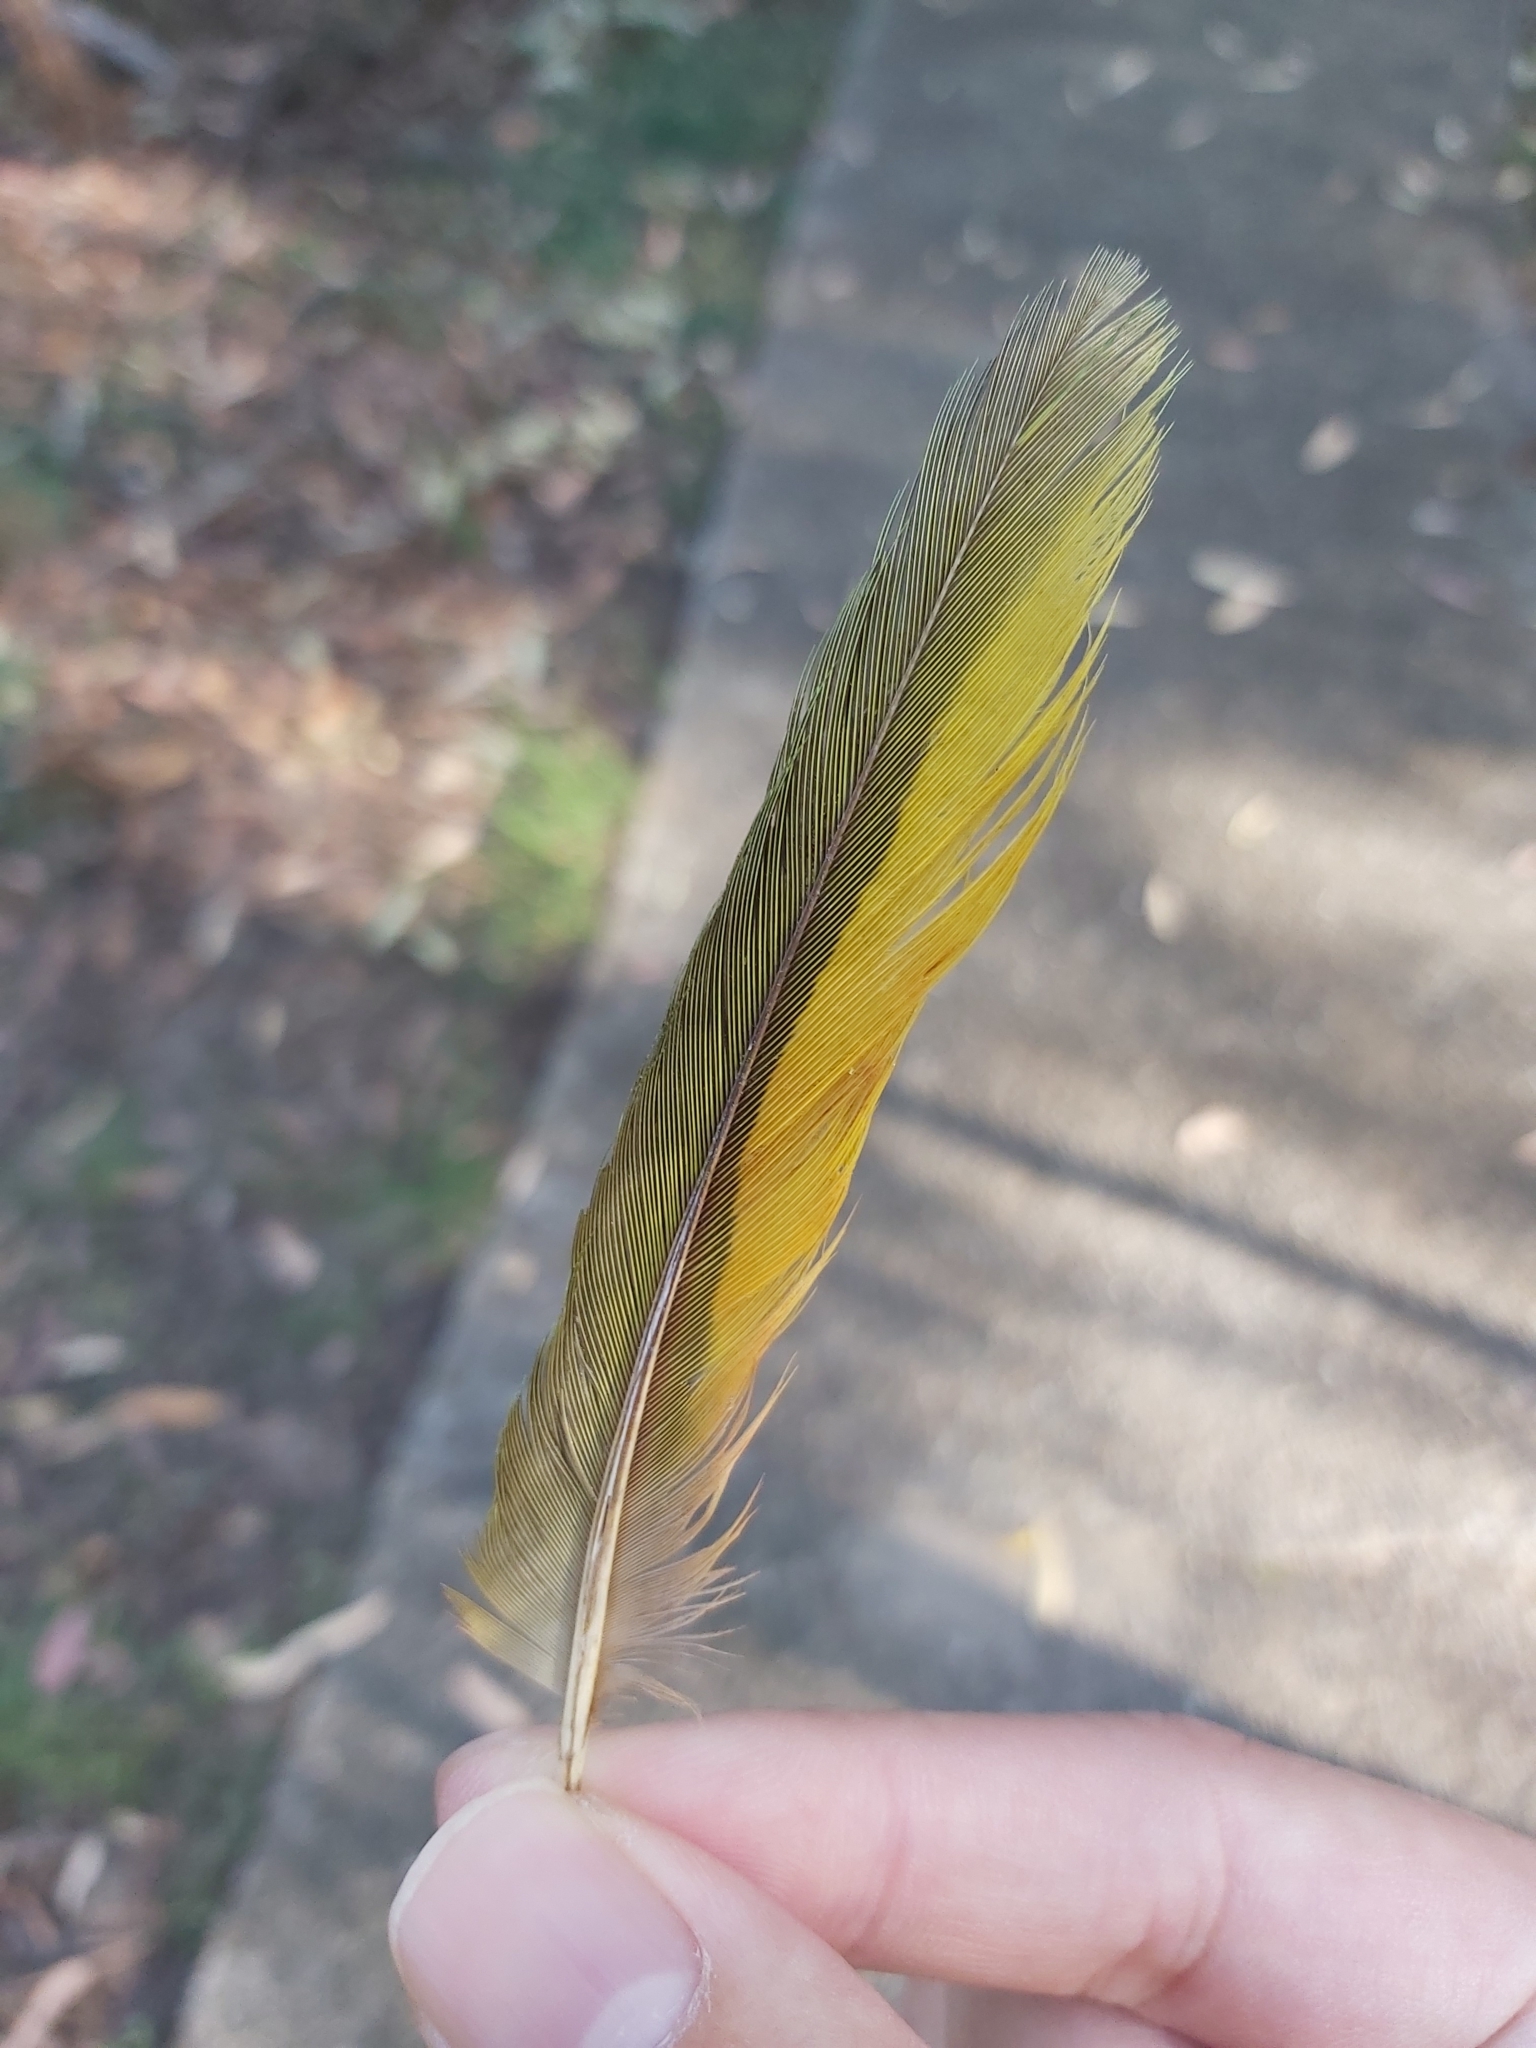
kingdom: Animalia
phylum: Chordata
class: Aves
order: Psittaciformes
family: Psittacidae
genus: Trichoglossus
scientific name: Trichoglossus haematodus
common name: Coconut lorikeet
